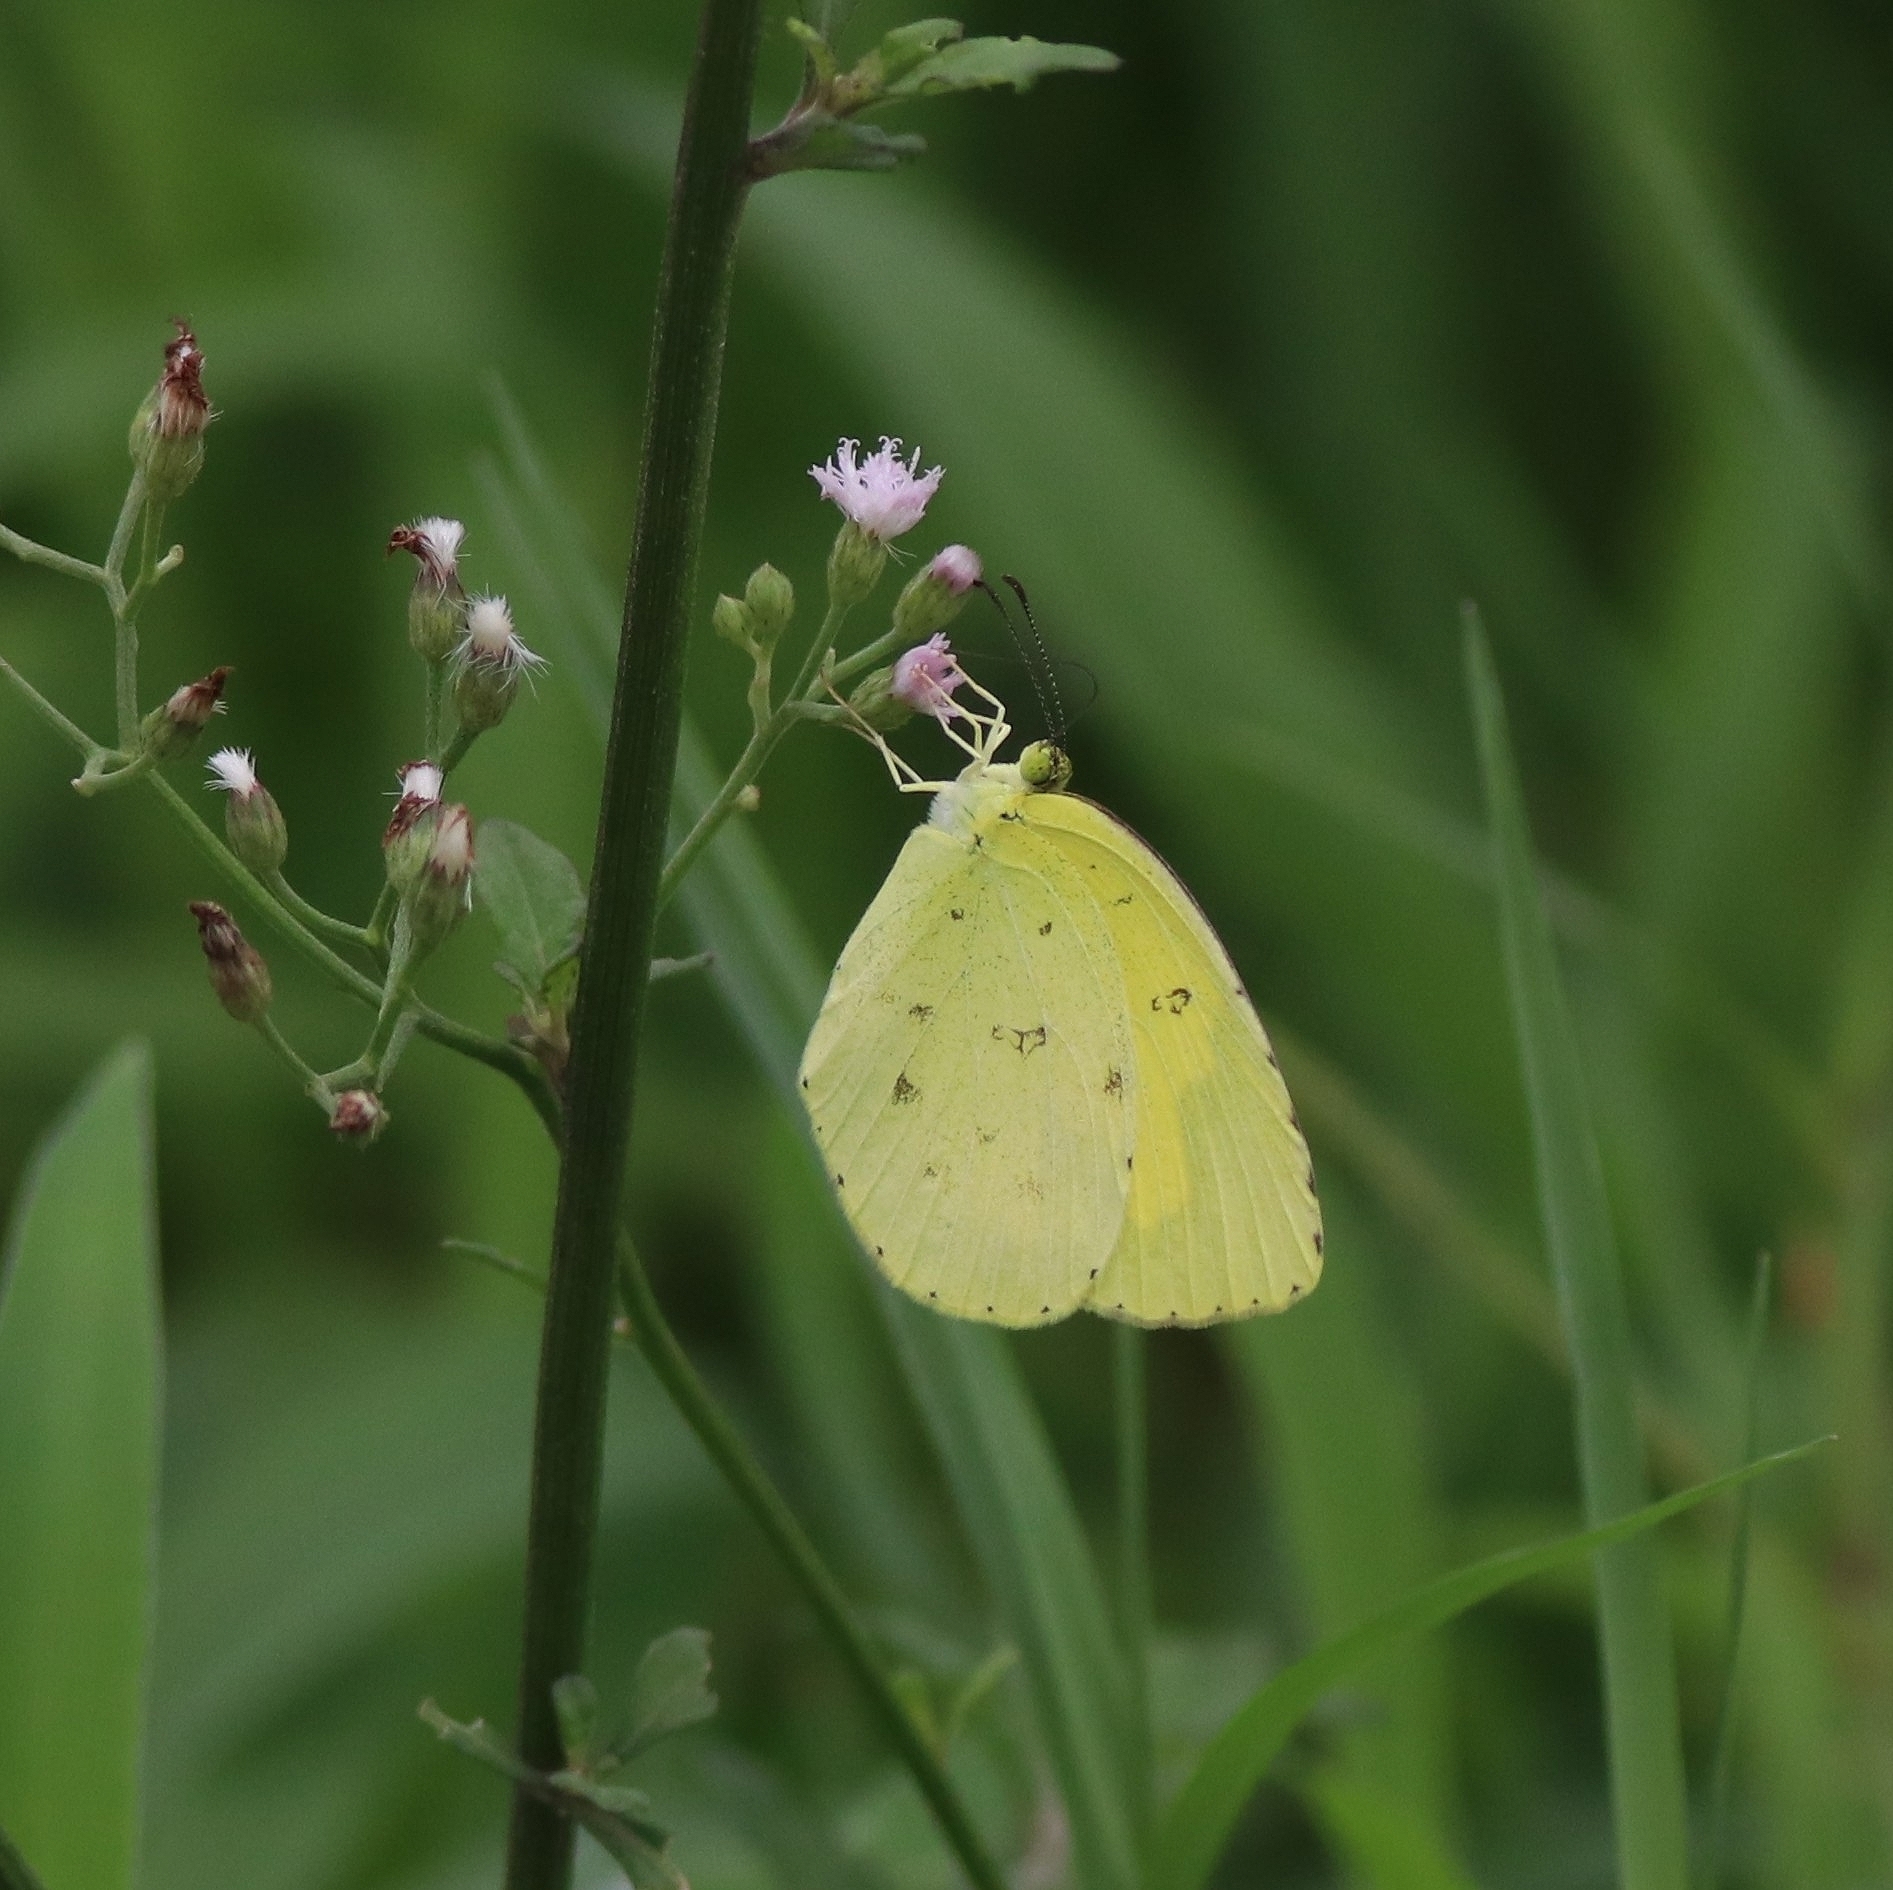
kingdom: Animalia
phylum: Arthropoda
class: Insecta
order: Lepidoptera
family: Pieridae
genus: Eurema
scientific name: Eurema hecabe
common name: Pale grass yellow
